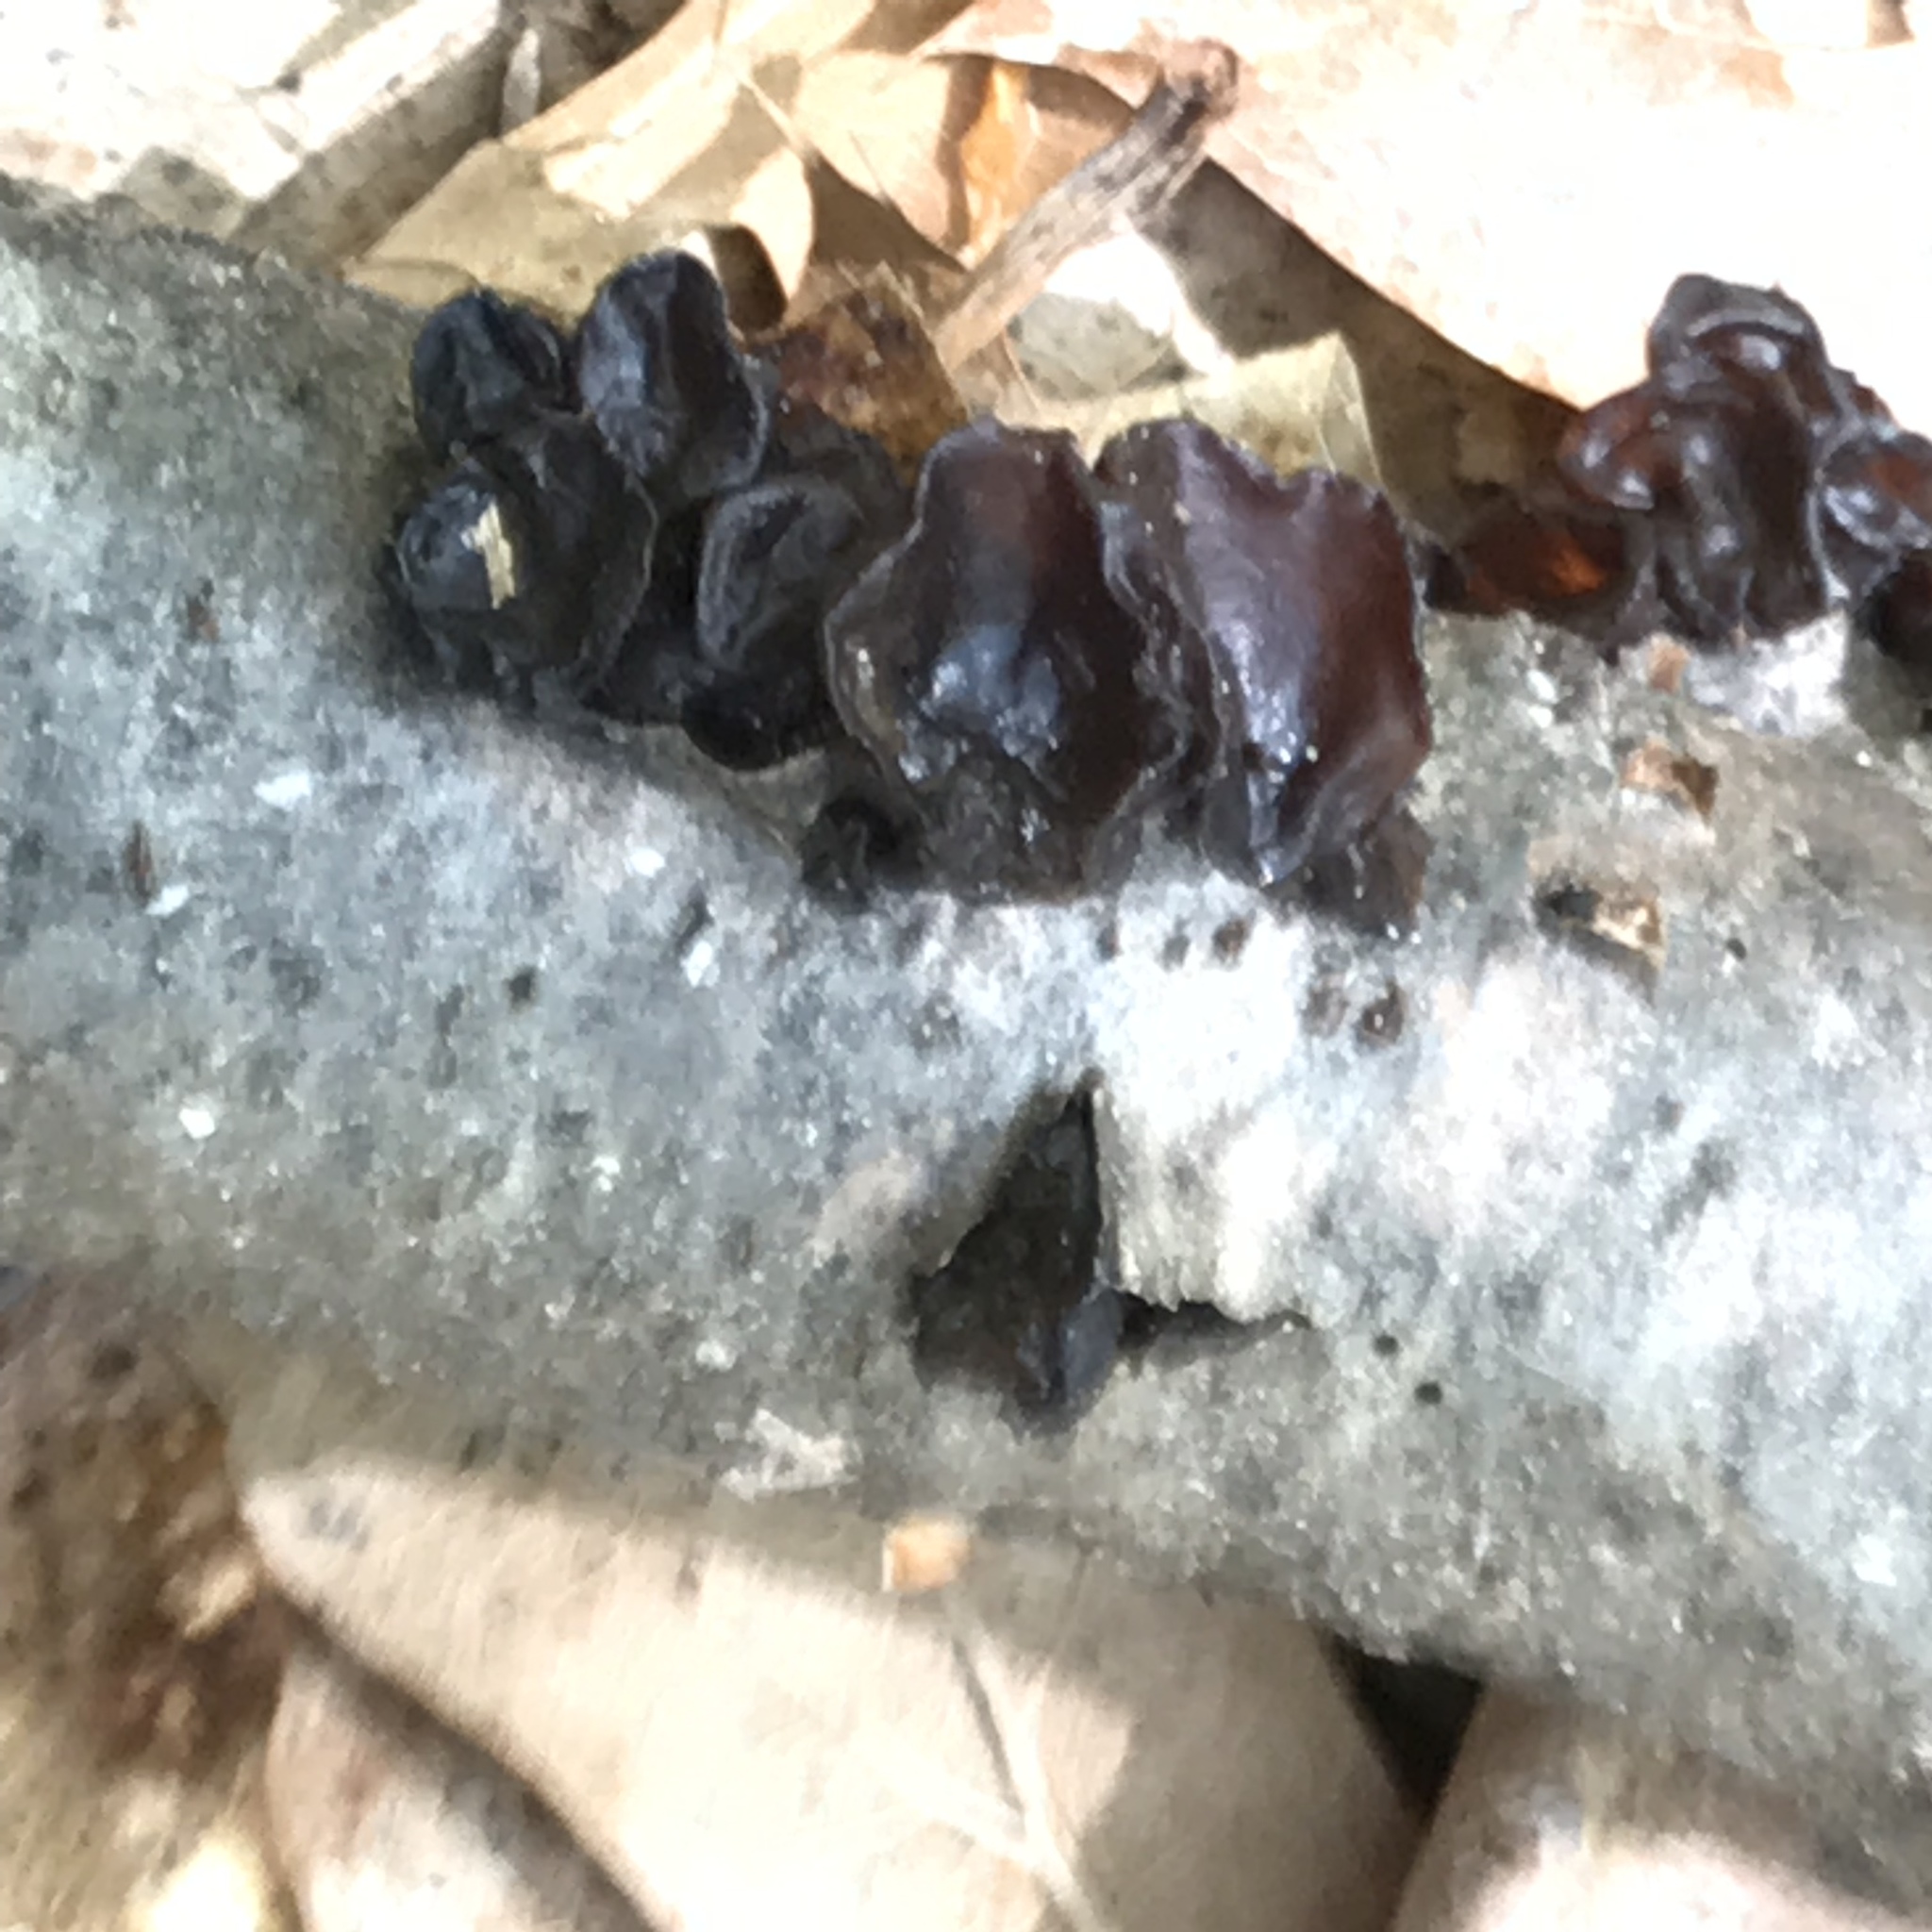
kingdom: Fungi
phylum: Basidiomycota
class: Agaricomycetes
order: Auriculariales
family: Auriculariaceae
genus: Exidia
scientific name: Exidia
